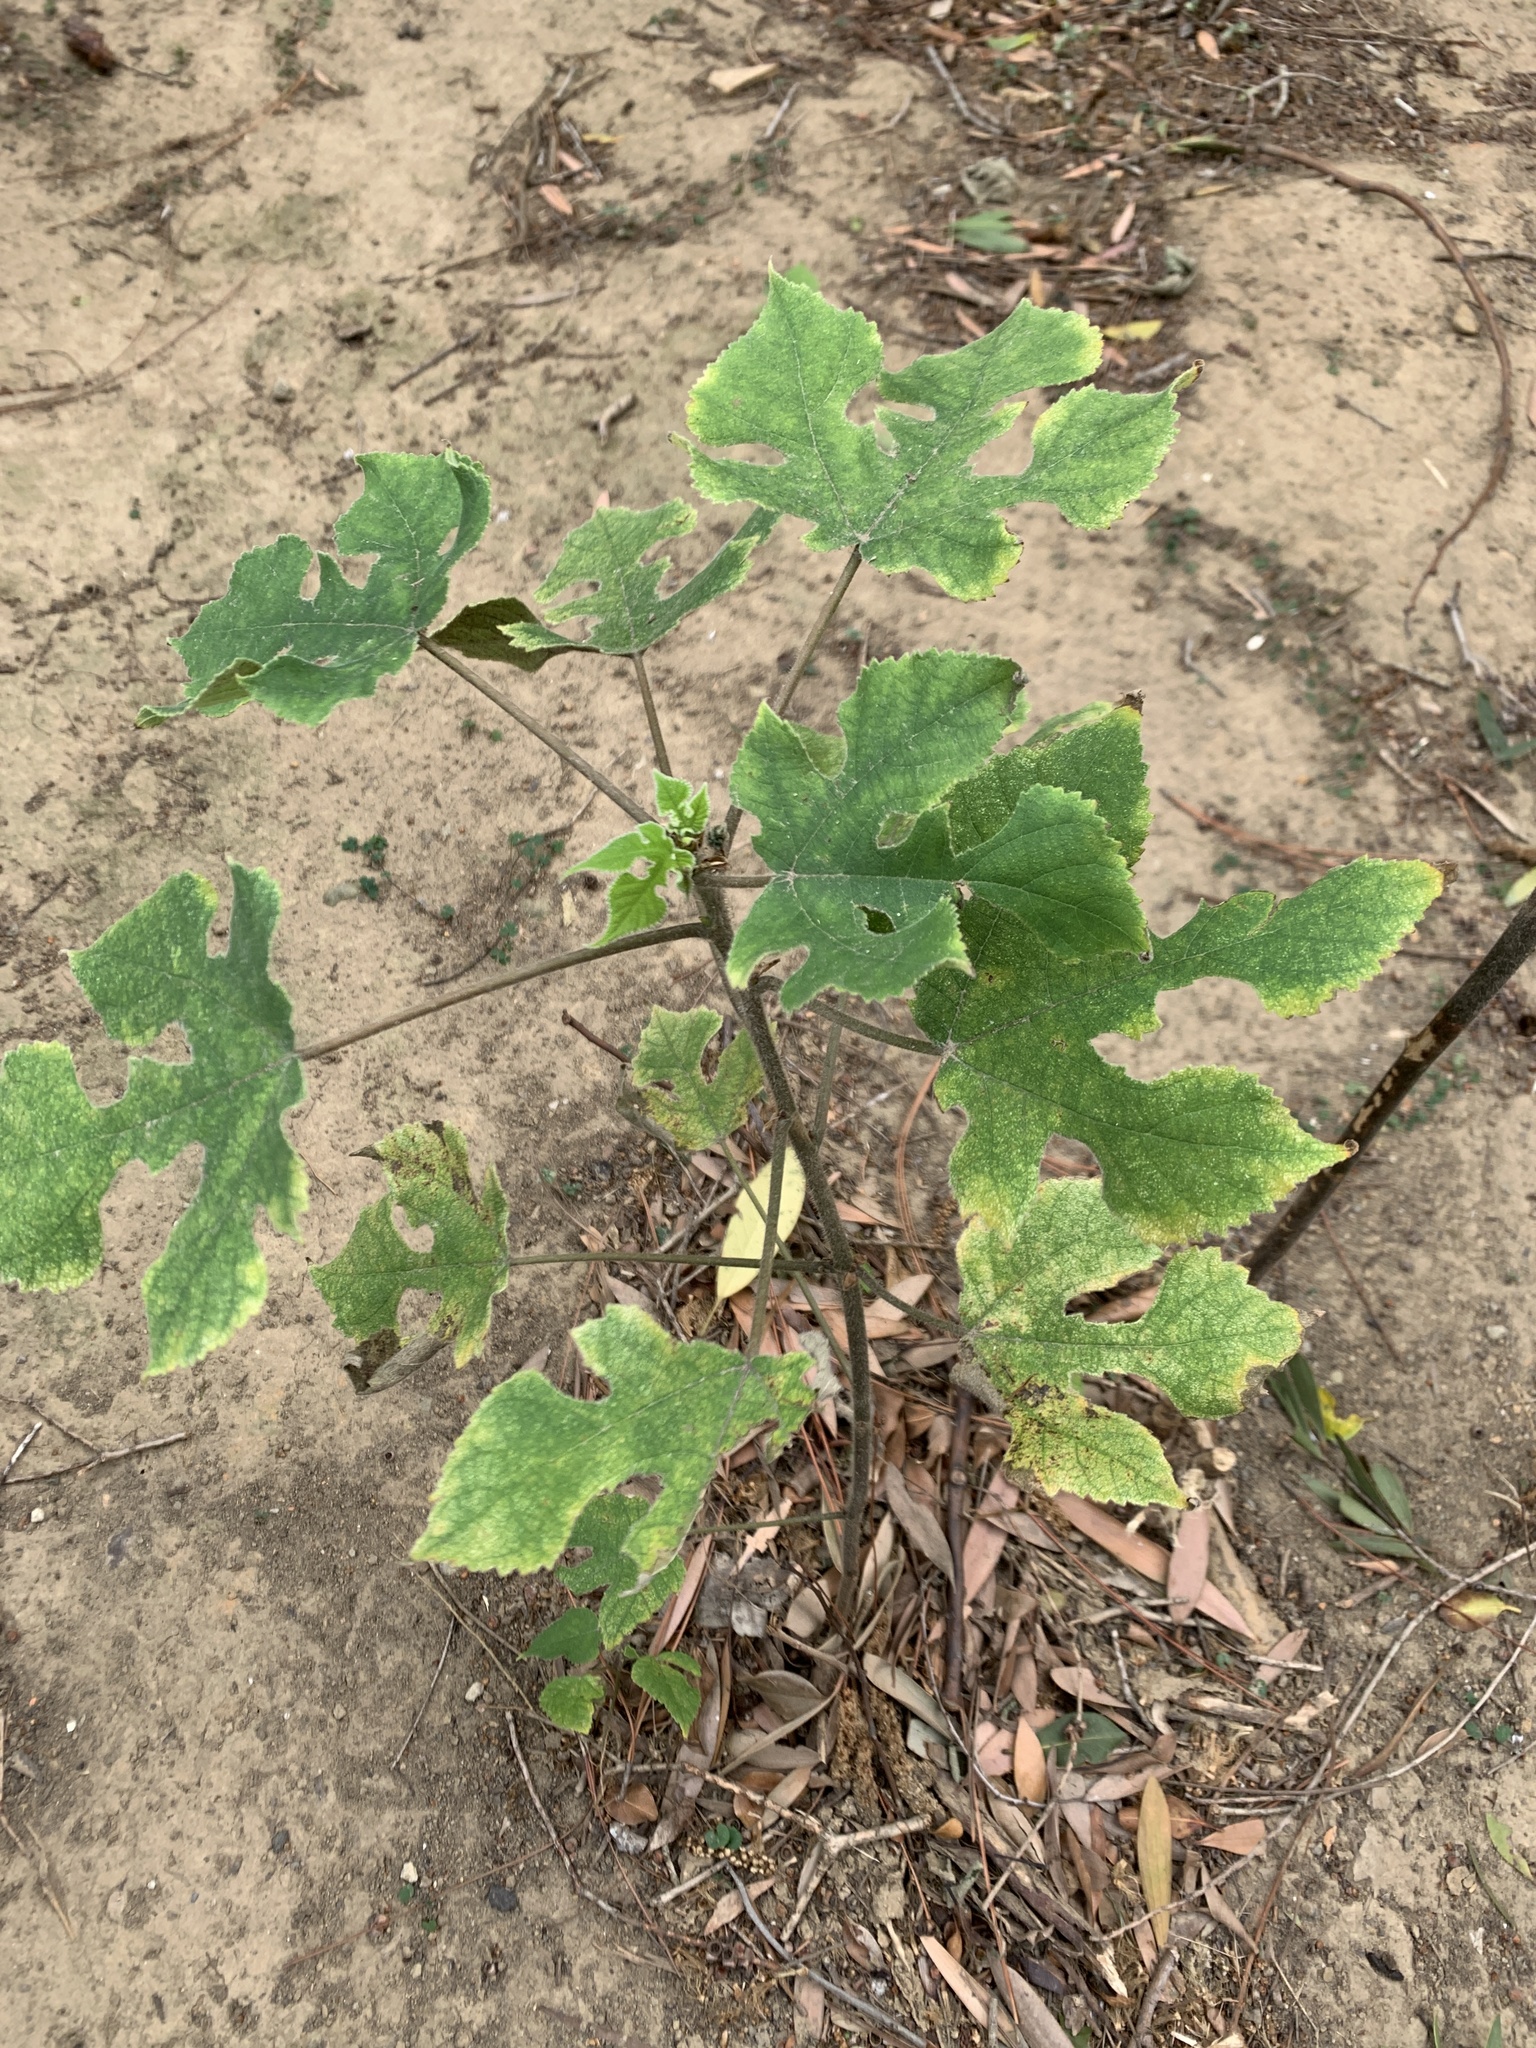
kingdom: Plantae
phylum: Tracheophyta
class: Magnoliopsida
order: Rosales
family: Moraceae
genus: Broussonetia
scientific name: Broussonetia papyrifera
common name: Paper mulberry
